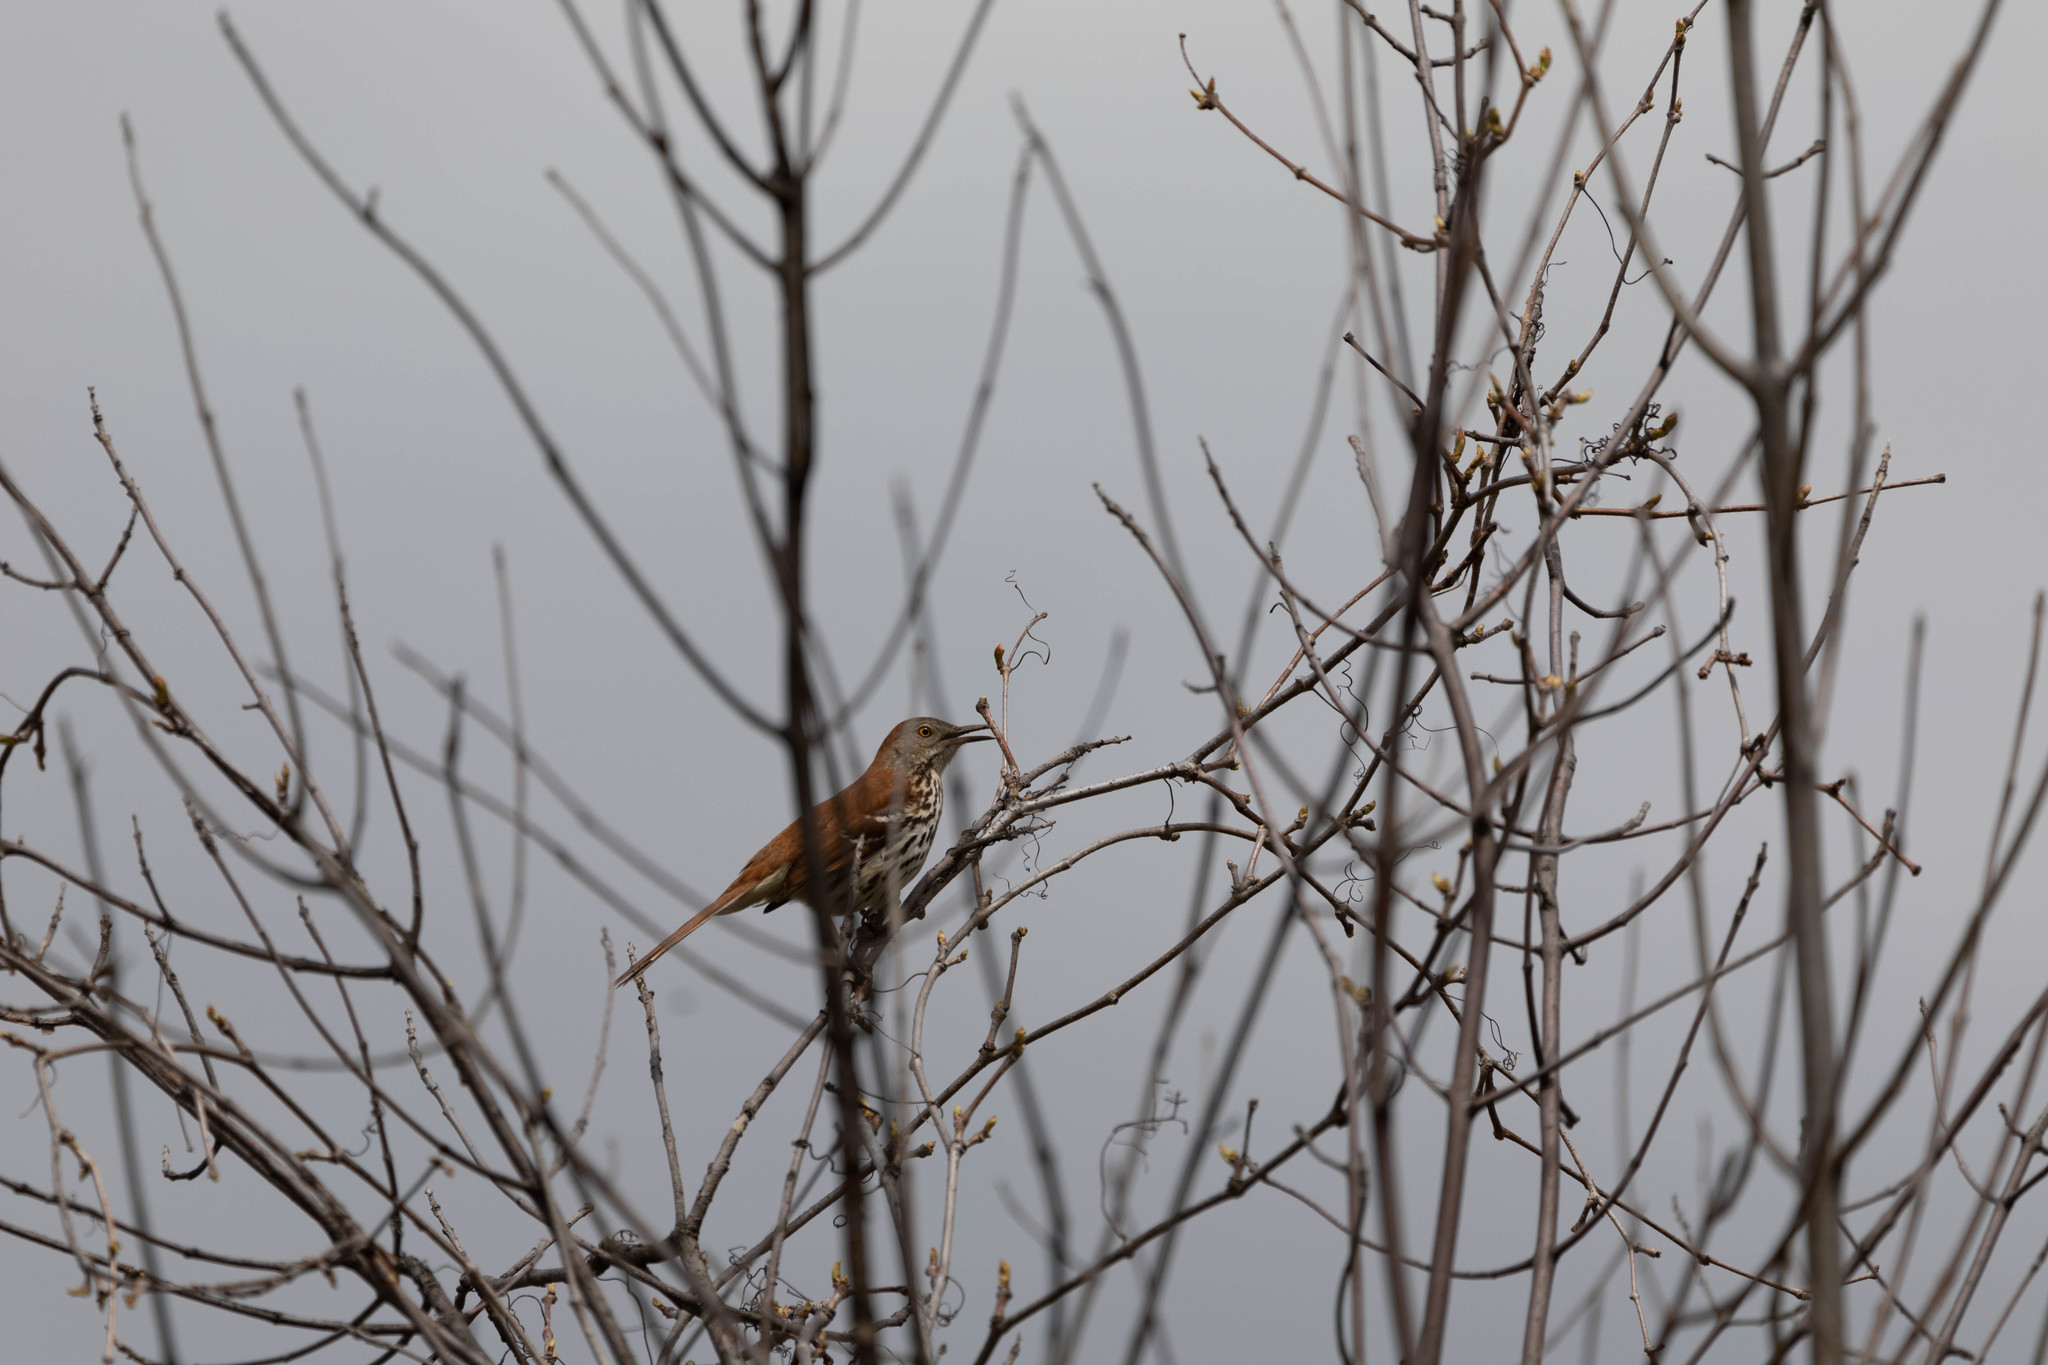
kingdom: Animalia
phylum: Chordata
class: Aves
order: Passeriformes
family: Mimidae
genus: Toxostoma
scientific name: Toxostoma rufum
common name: Brown thrasher
